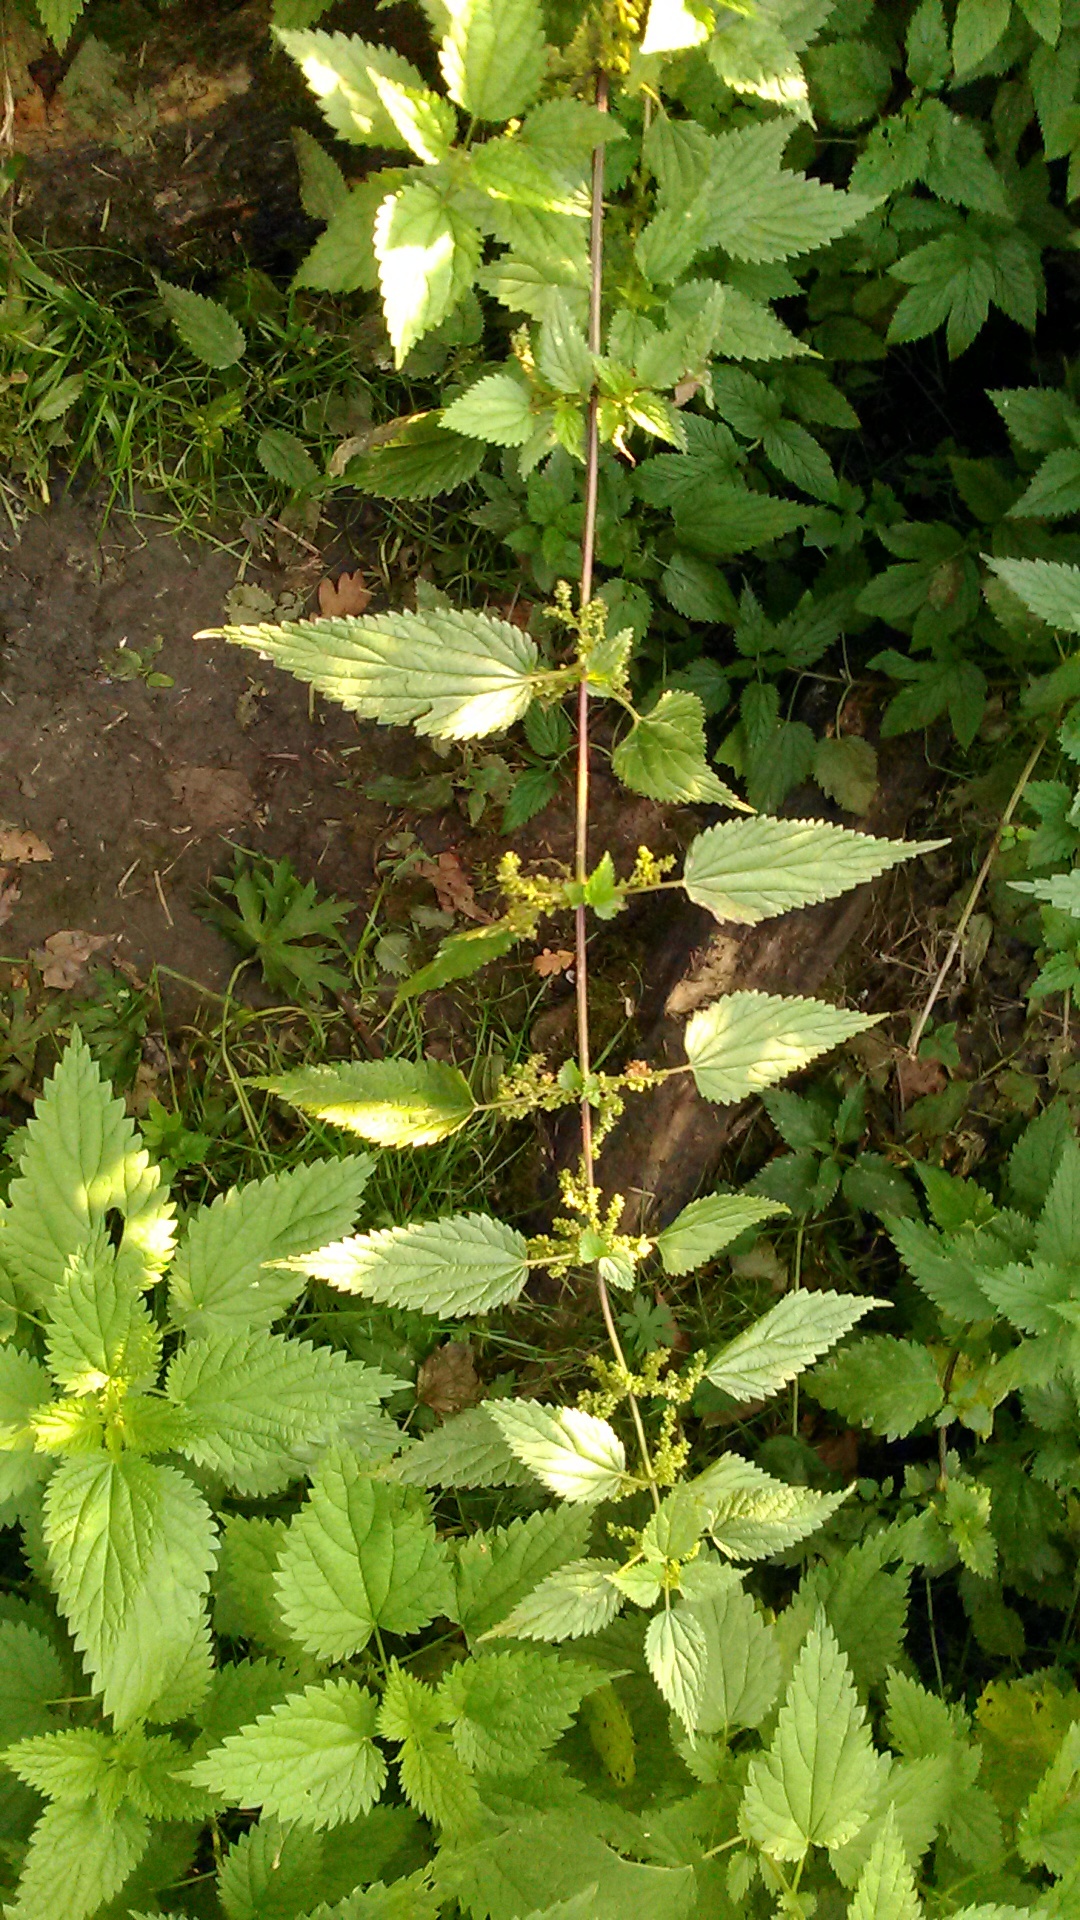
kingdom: Plantae
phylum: Tracheophyta
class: Magnoliopsida
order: Rosales
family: Urticaceae
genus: Urtica
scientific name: Urtica dioica
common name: Common nettle
